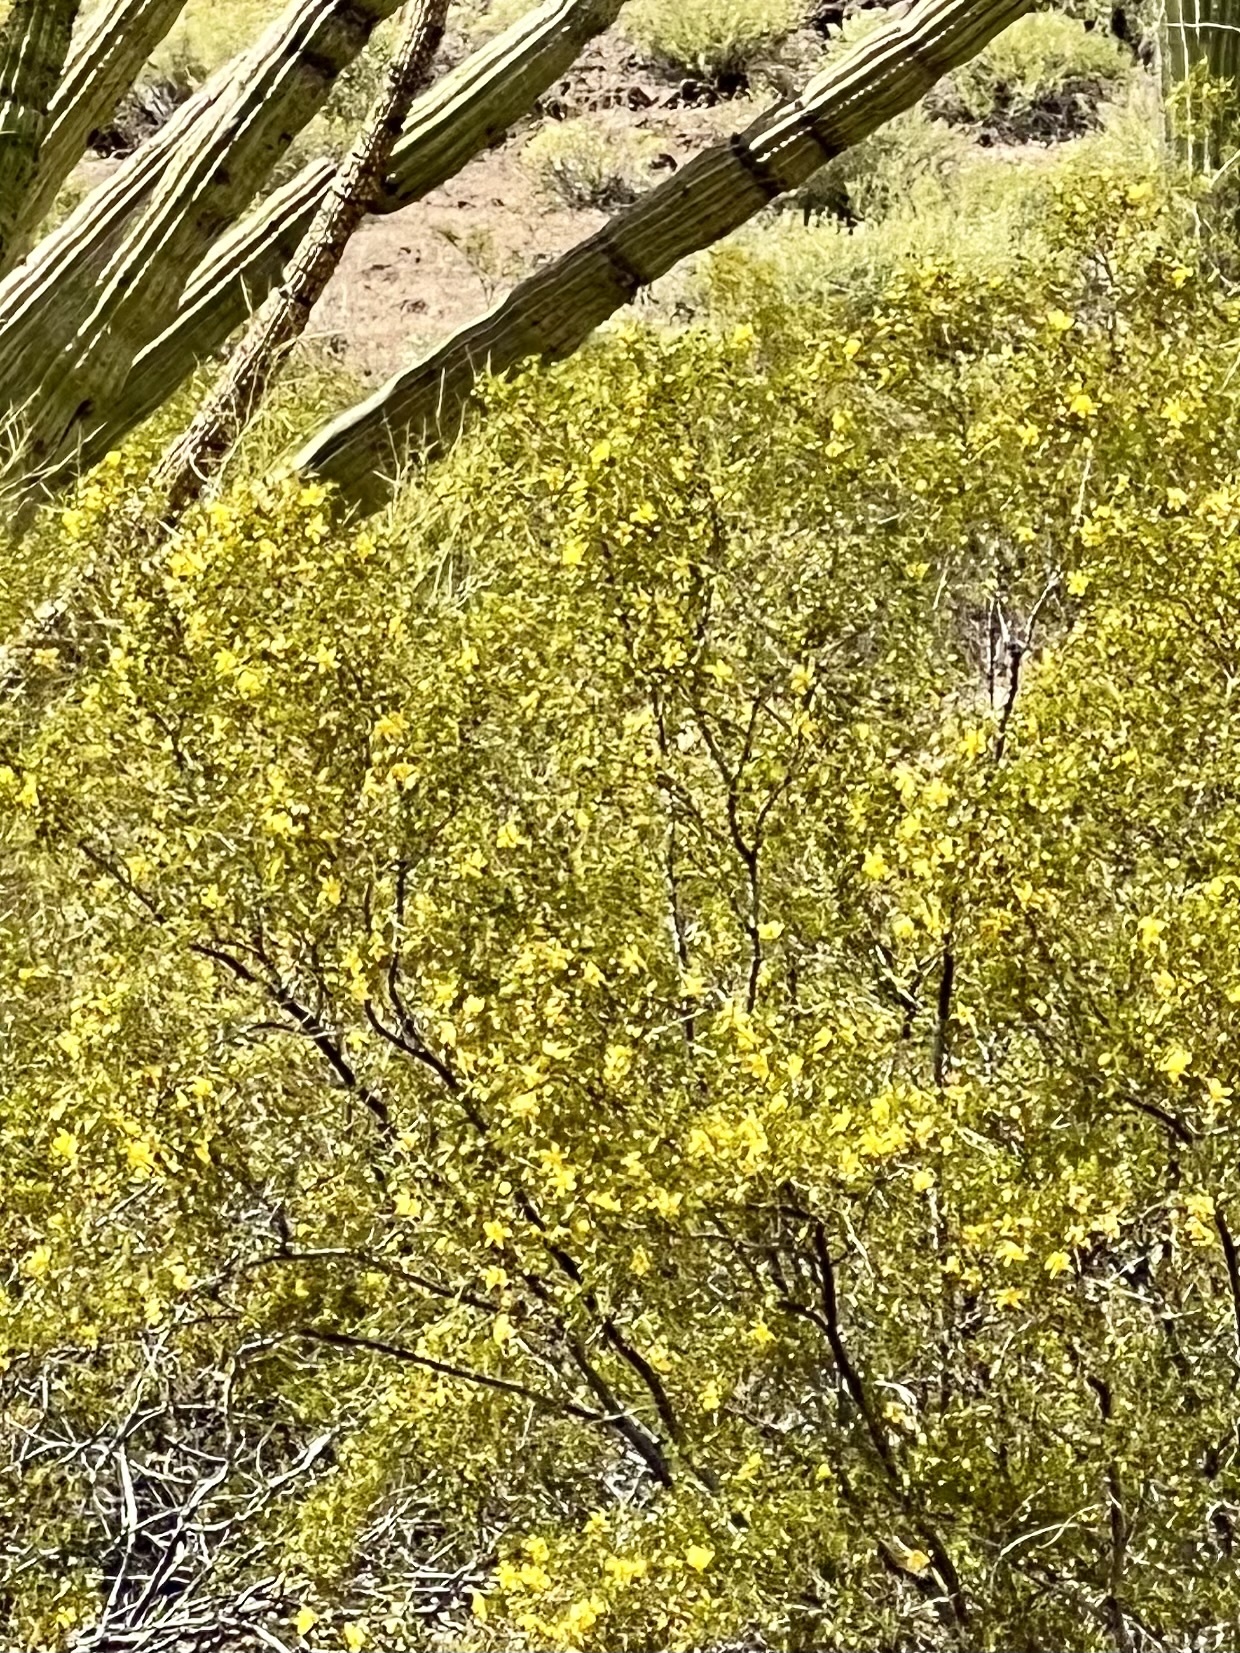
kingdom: Plantae
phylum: Tracheophyta
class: Magnoliopsida
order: Zygophyllales
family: Zygophyllaceae
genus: Larrea
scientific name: Larrea tridentata
